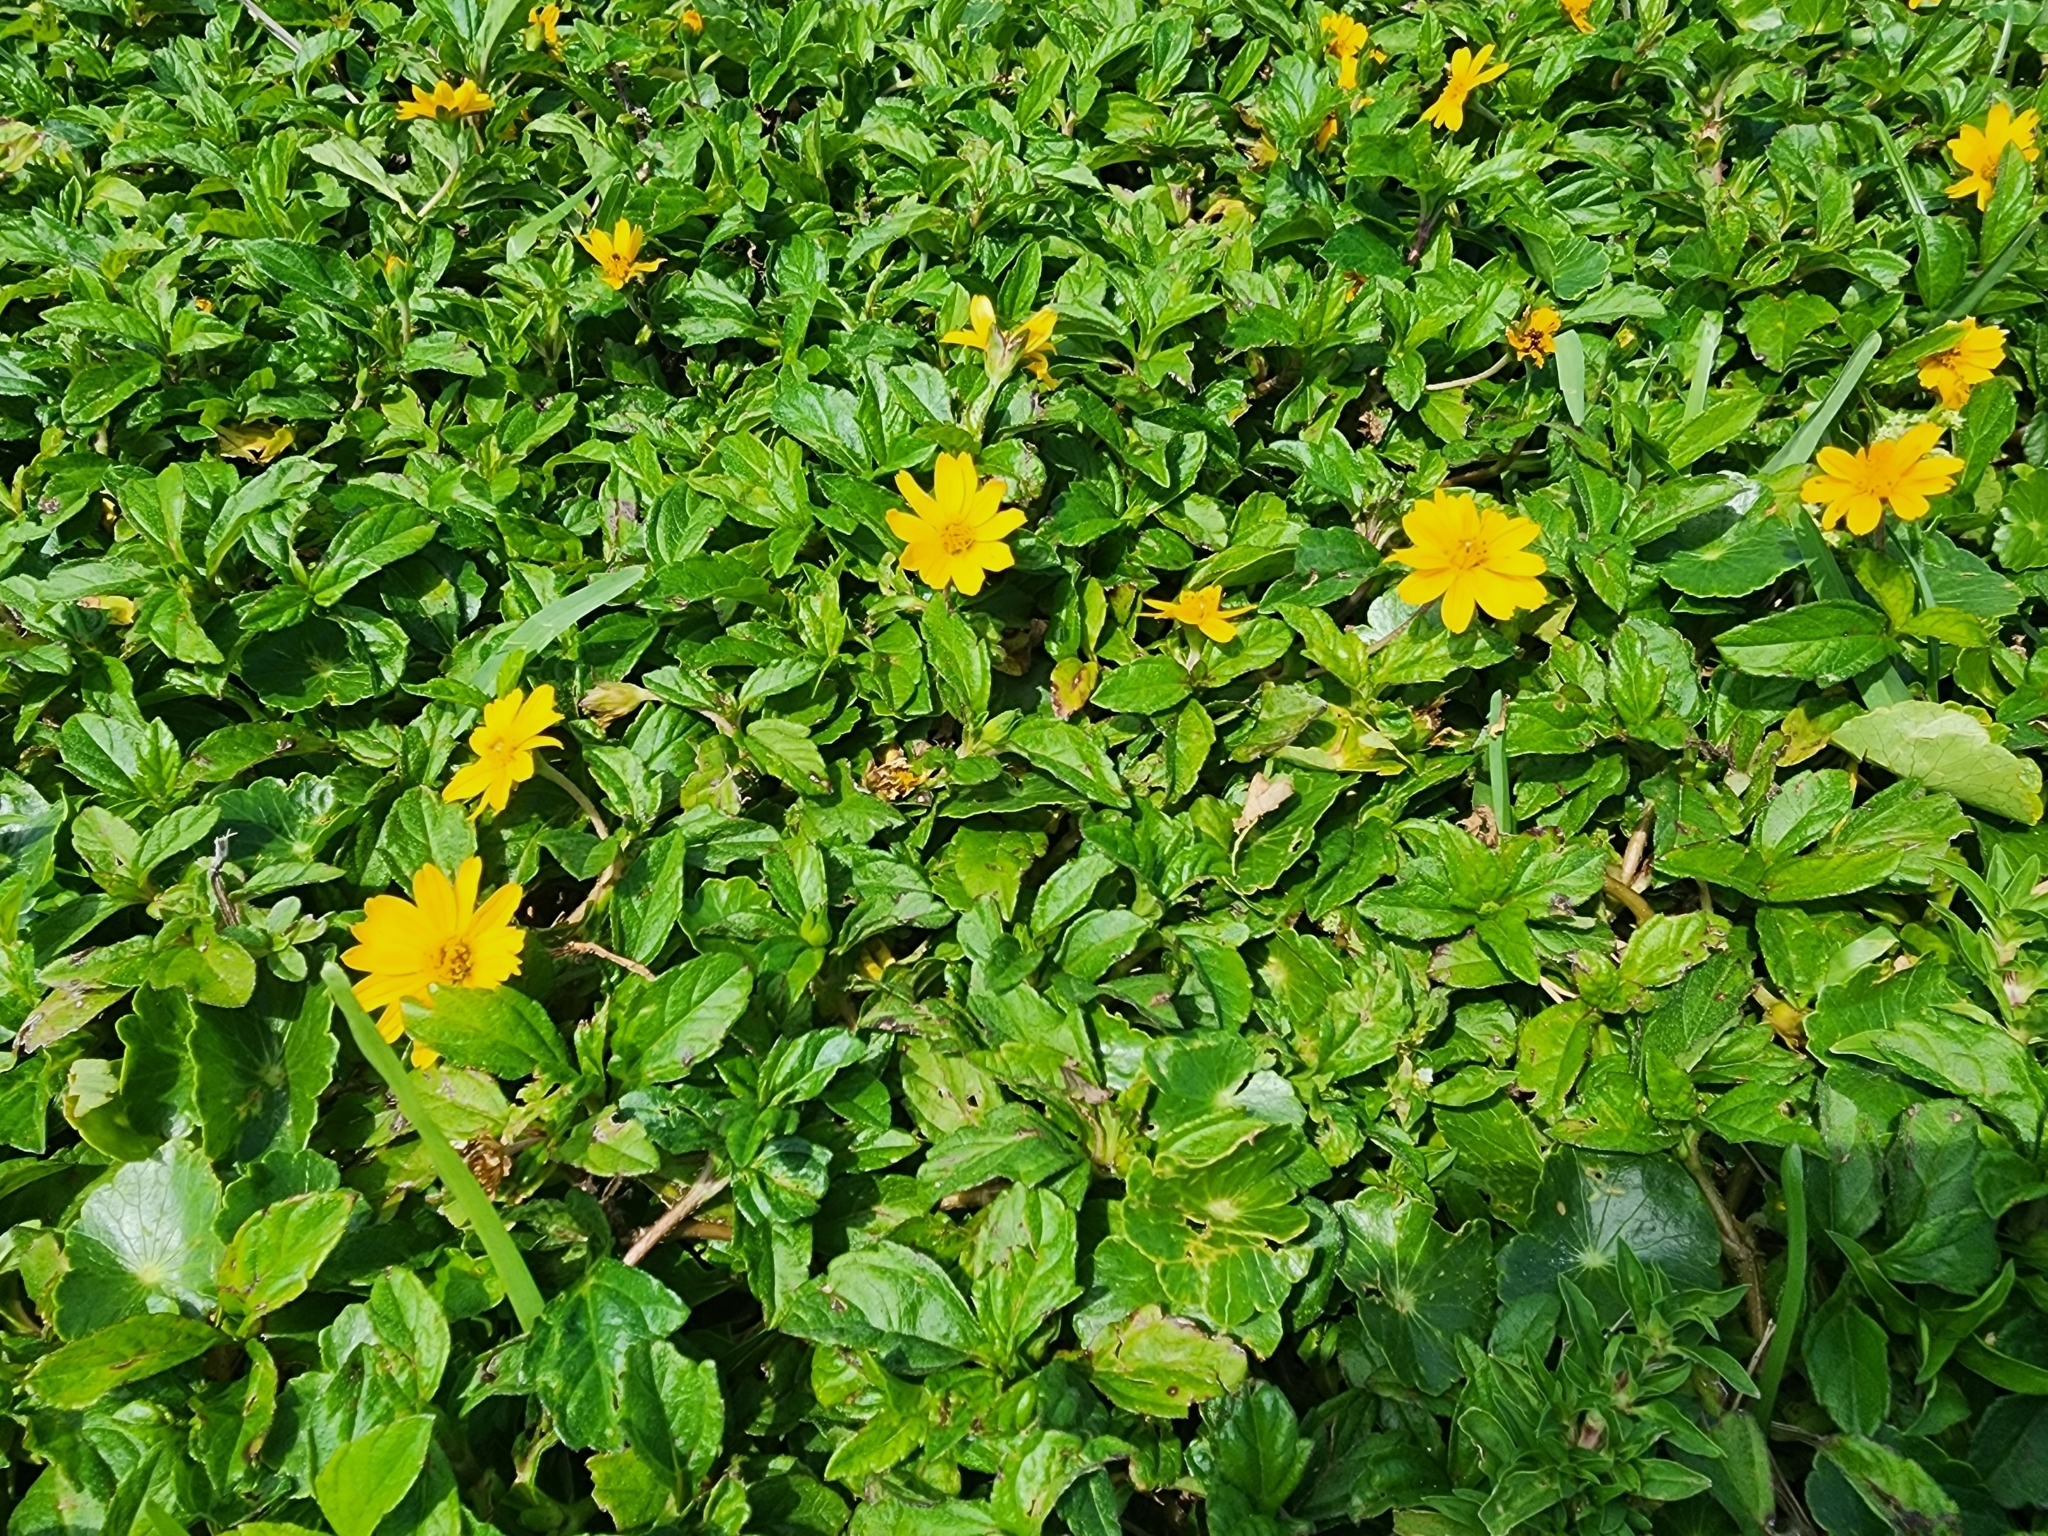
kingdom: Plantae
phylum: Tracheophyta
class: Magnoliopsida
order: Asterales
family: Asteraceae
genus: Sphagneticola
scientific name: Sphagneticola trilobata
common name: Bay biscayne creeping-oxeye
